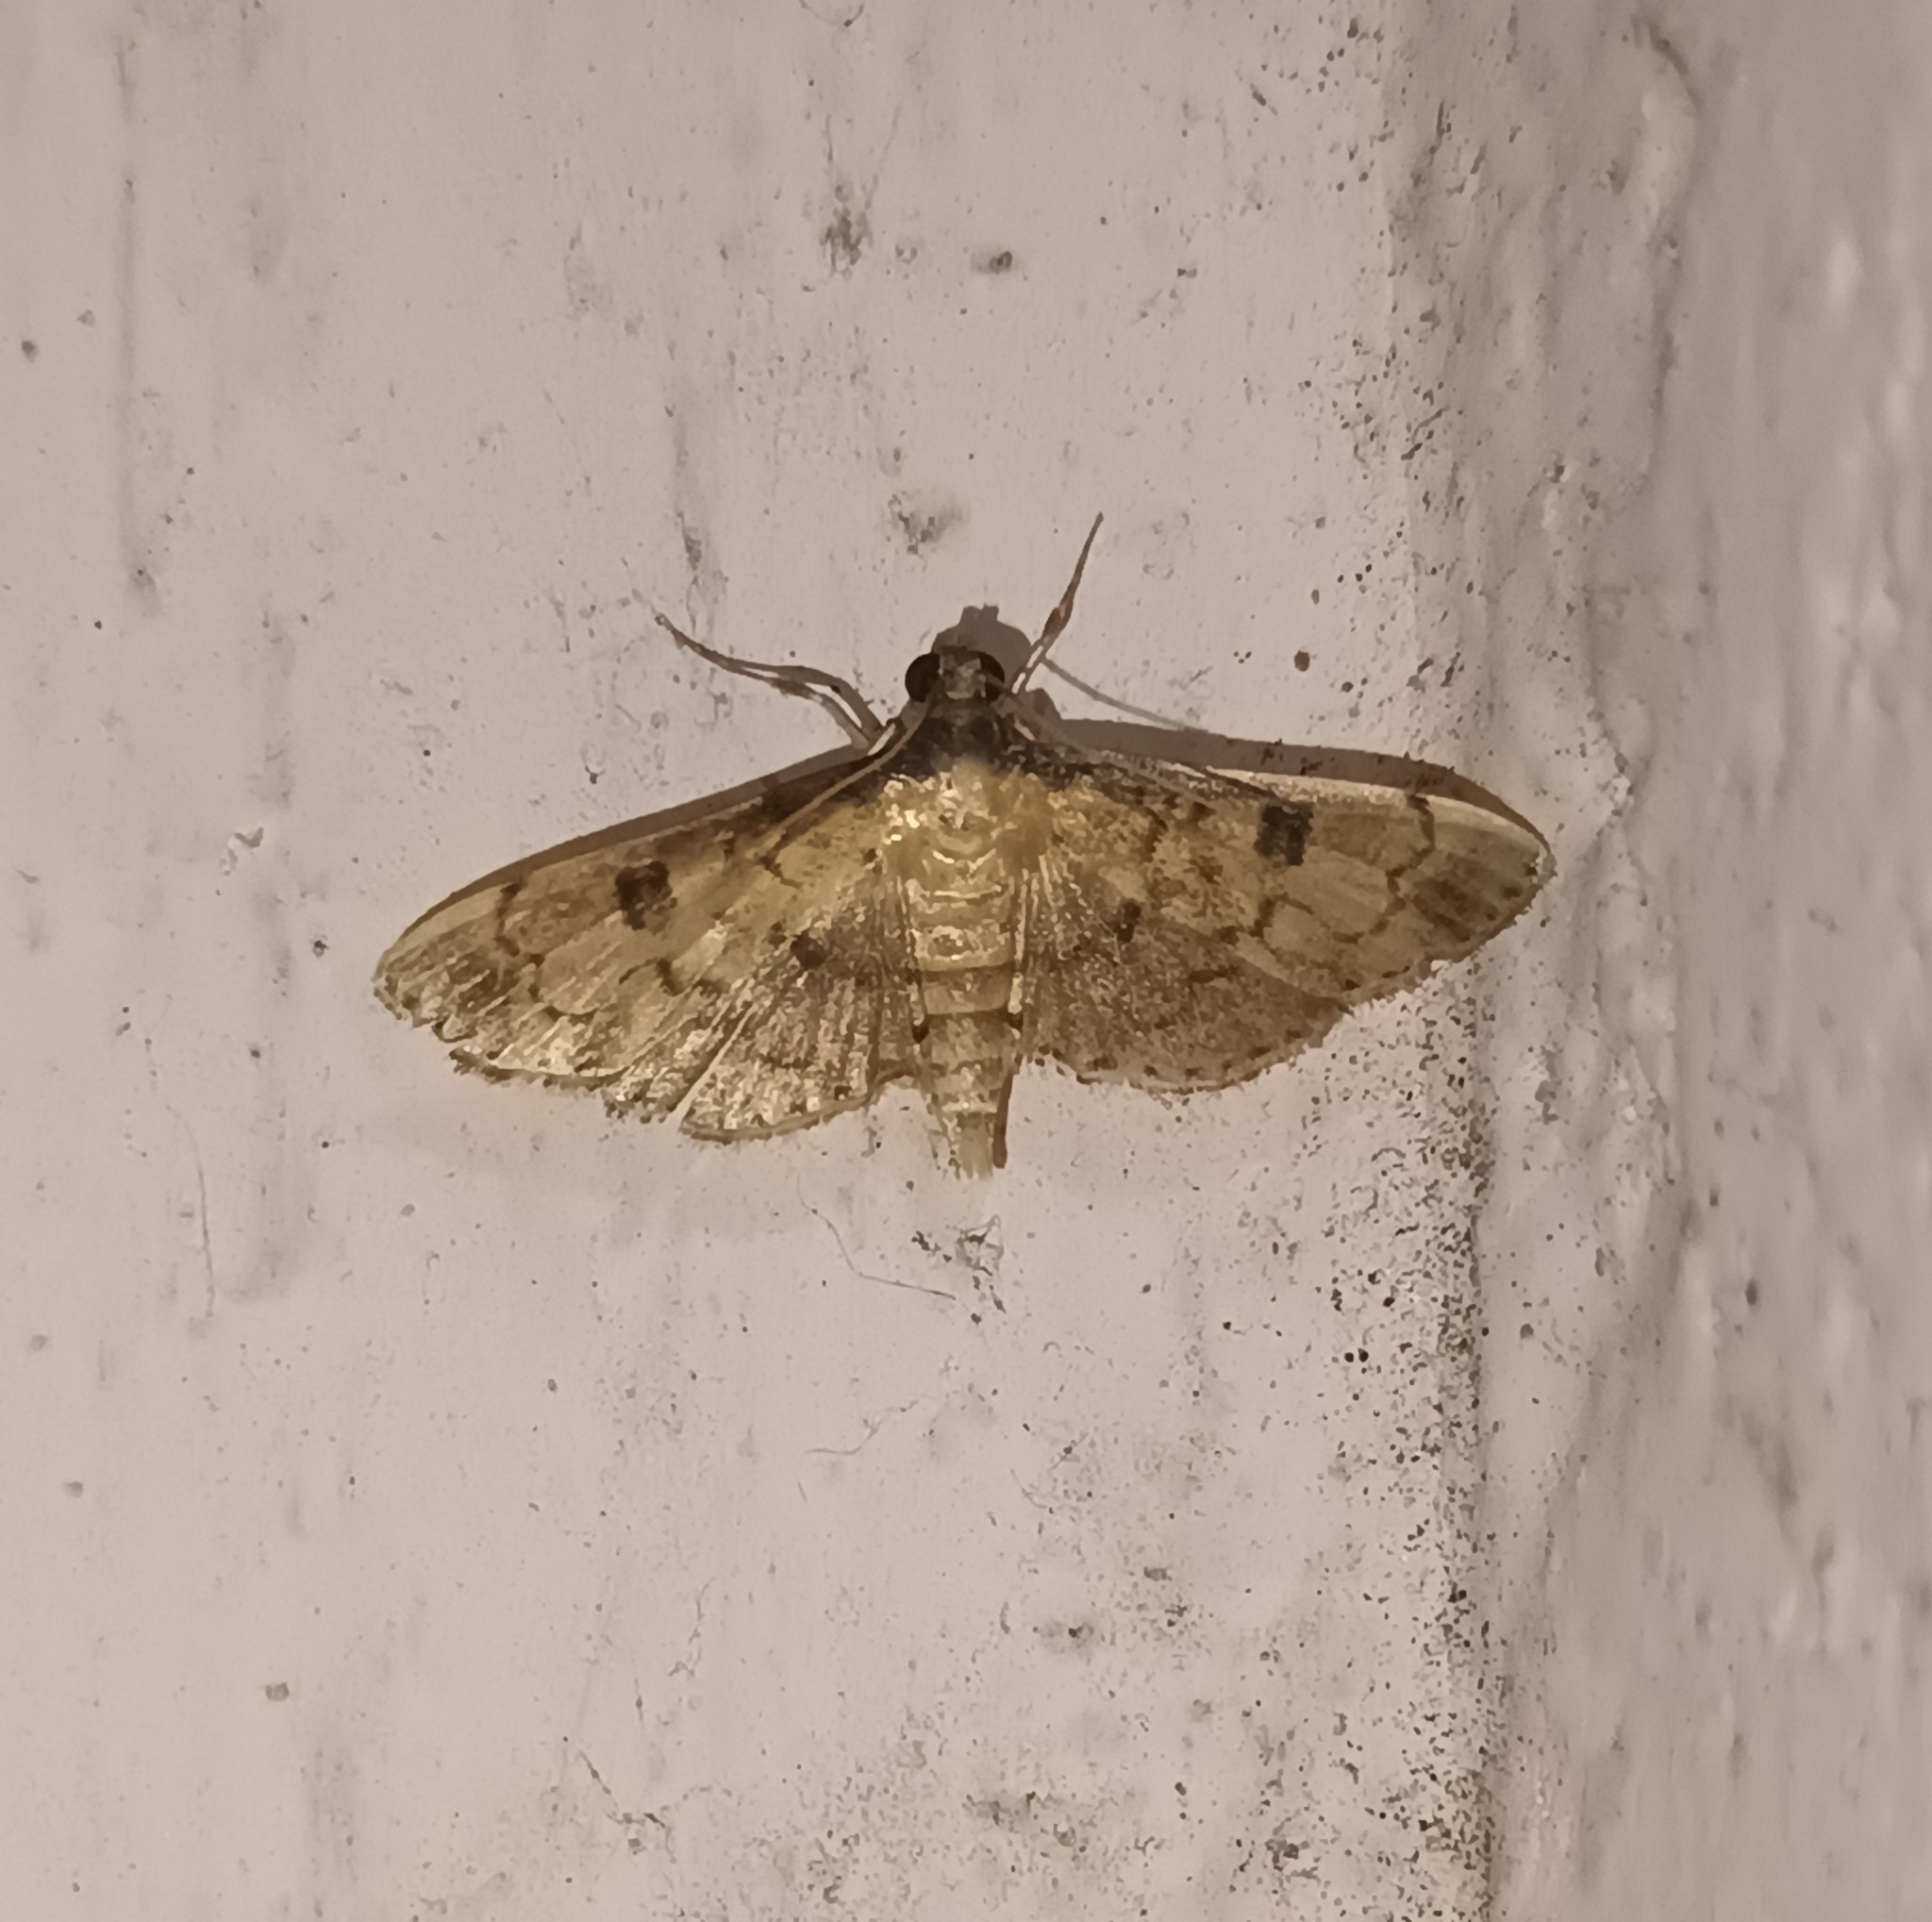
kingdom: Animalia
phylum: Arthropoda
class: Insecta
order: Lepidoptera
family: Crambidae
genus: Nacoleia
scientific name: Nacoleia charesalis
